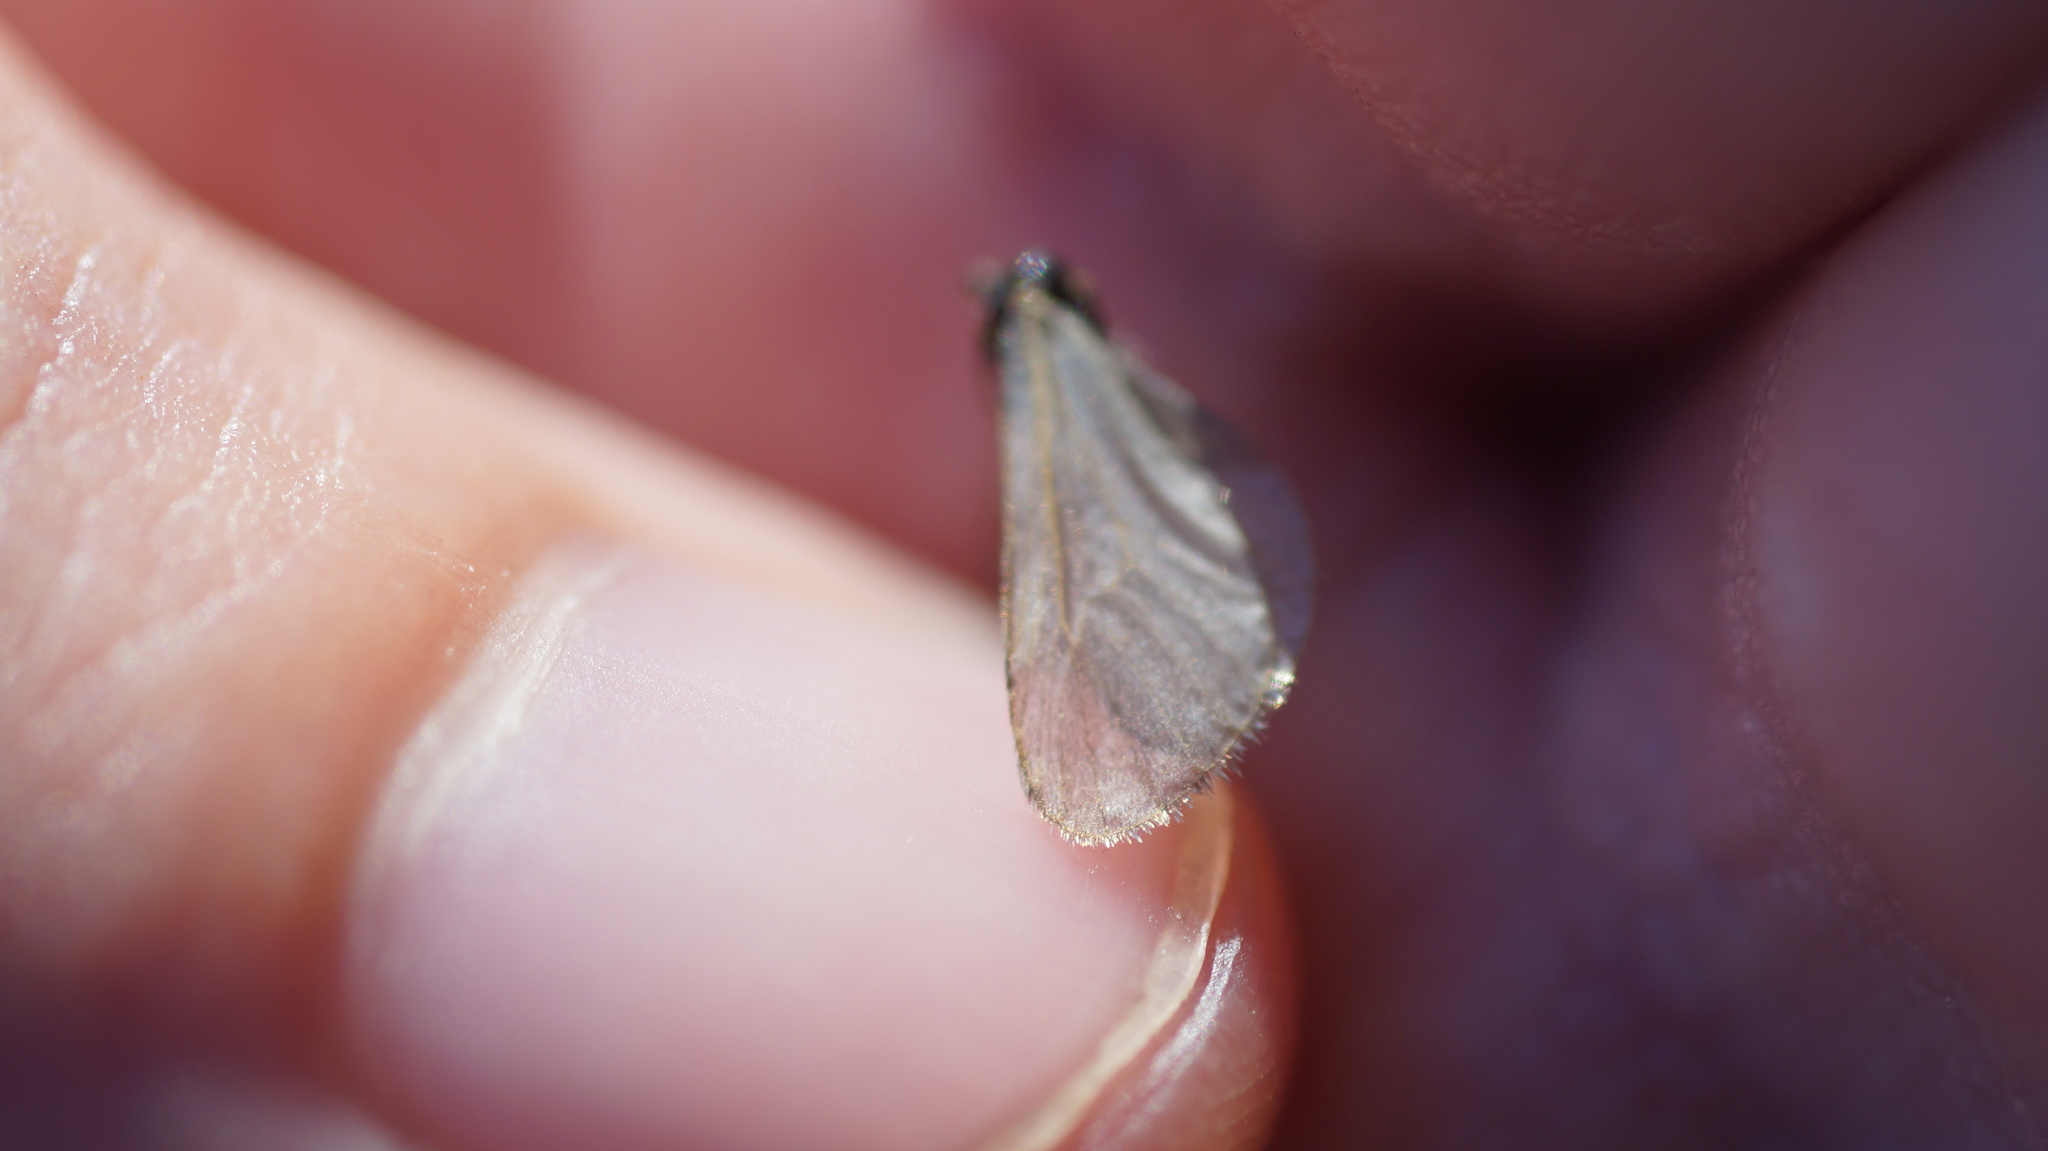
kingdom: Animalia
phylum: Arthropoda
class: Insecta
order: Lepidoptera
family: Psychidae
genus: Rebelia
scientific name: Rebelia
